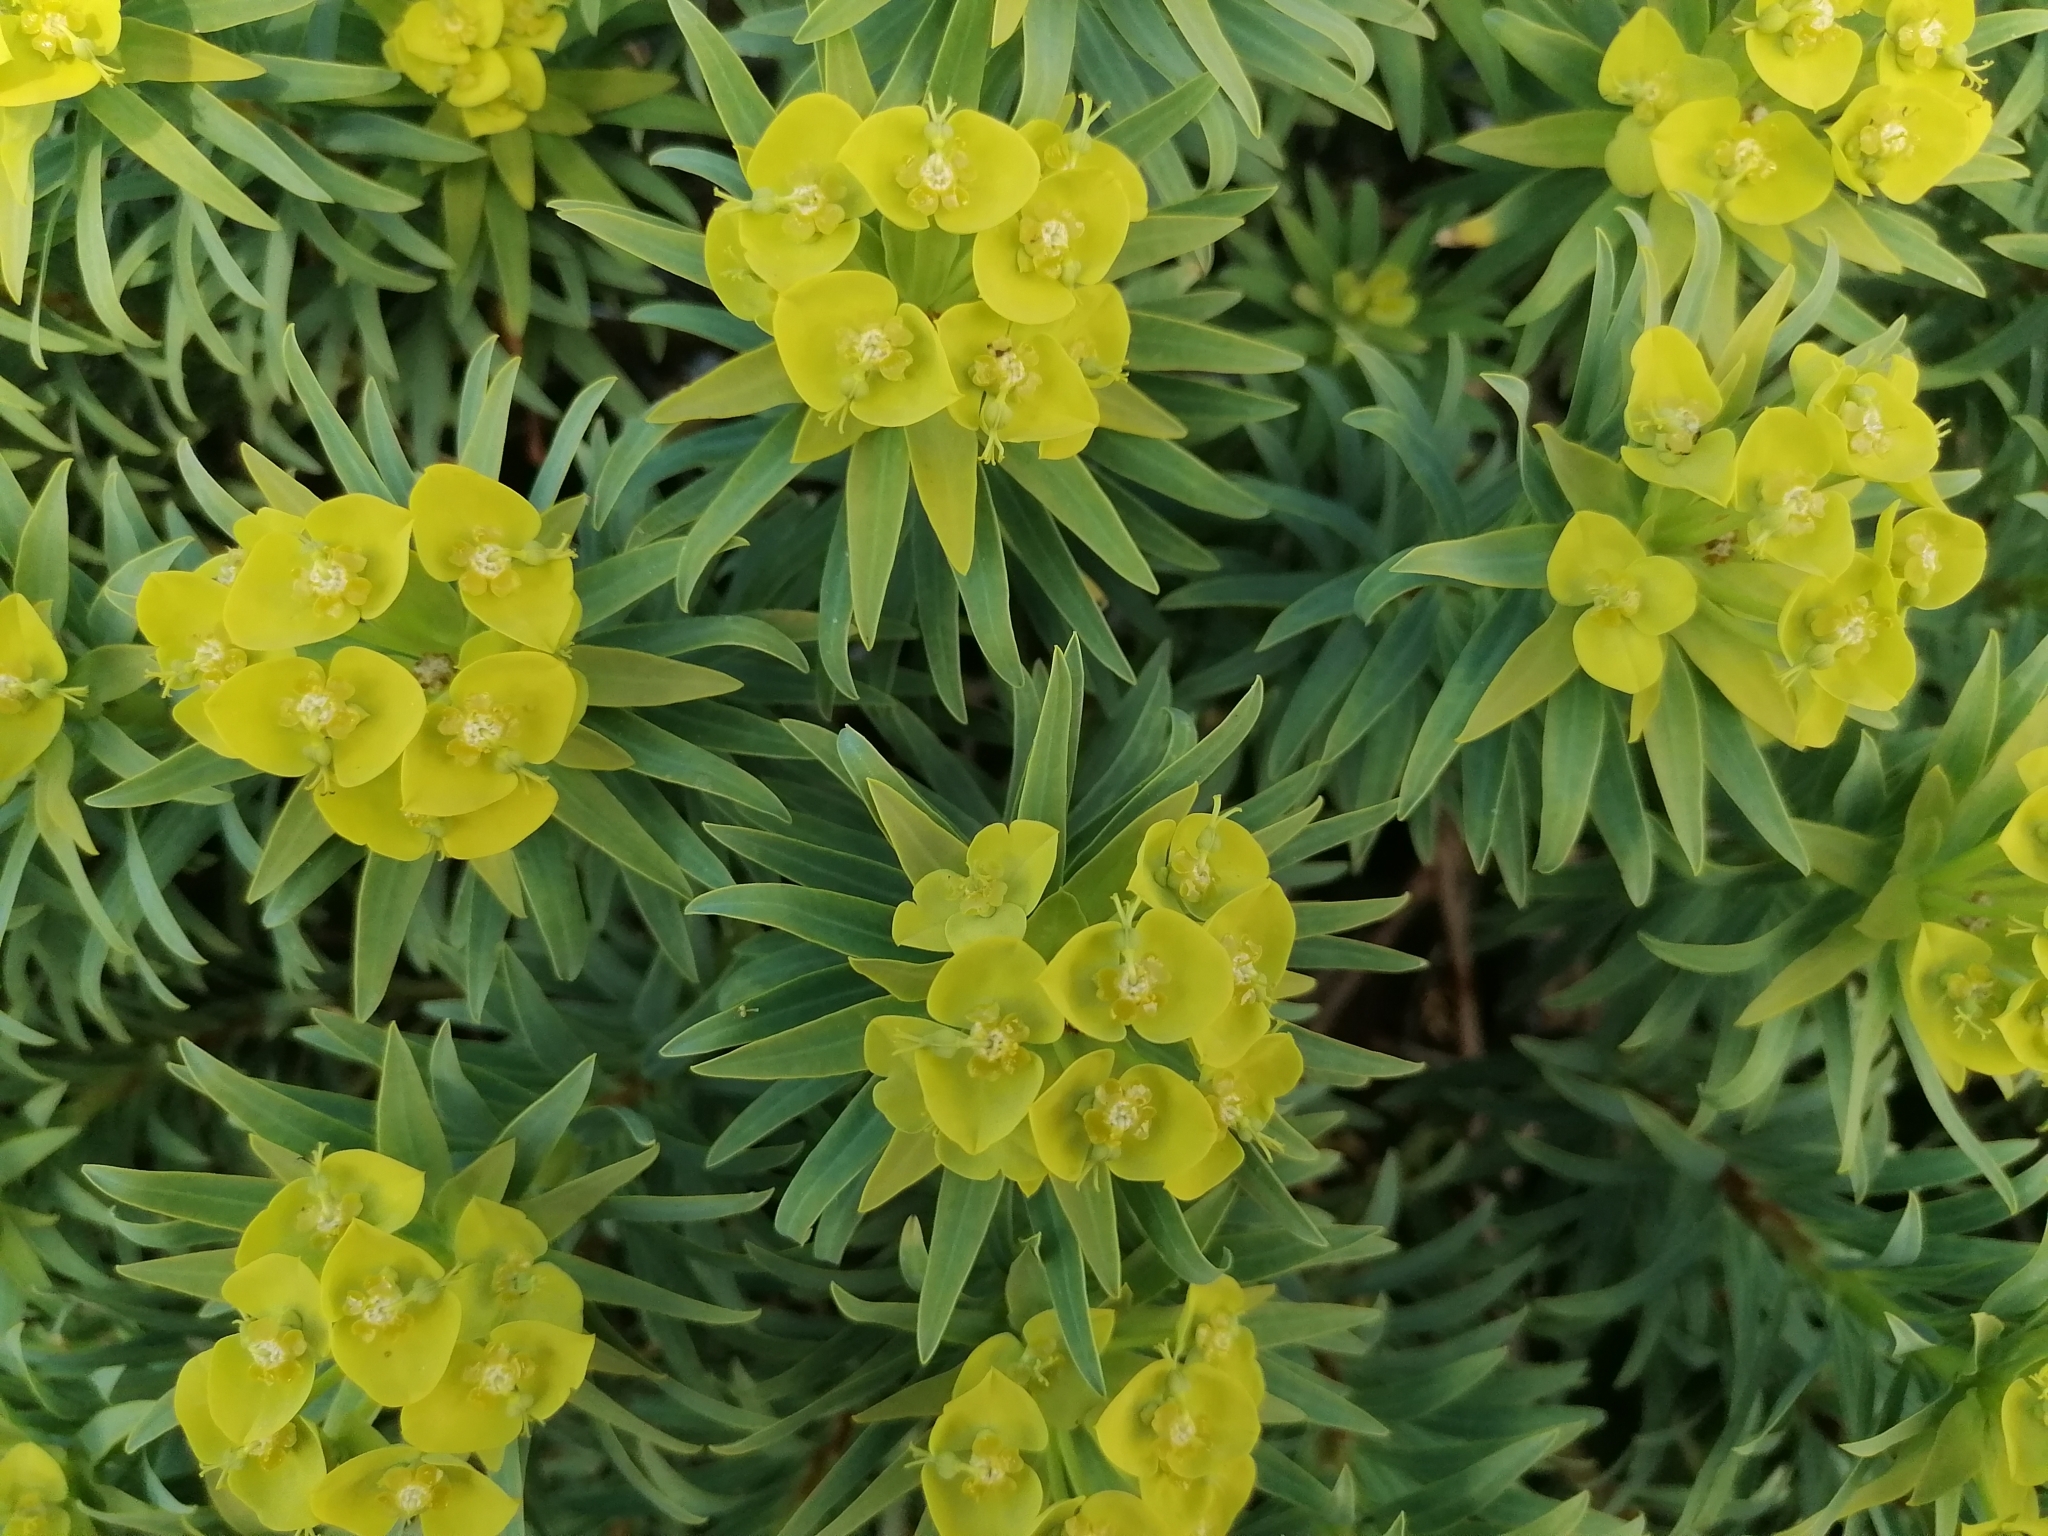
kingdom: Plantae
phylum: Tracheophyta
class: Magnoliopsida
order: Malpighiales
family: Euphorbiaceae
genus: Euphorbia
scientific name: Euphorbia dendroides
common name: Tree spurge
